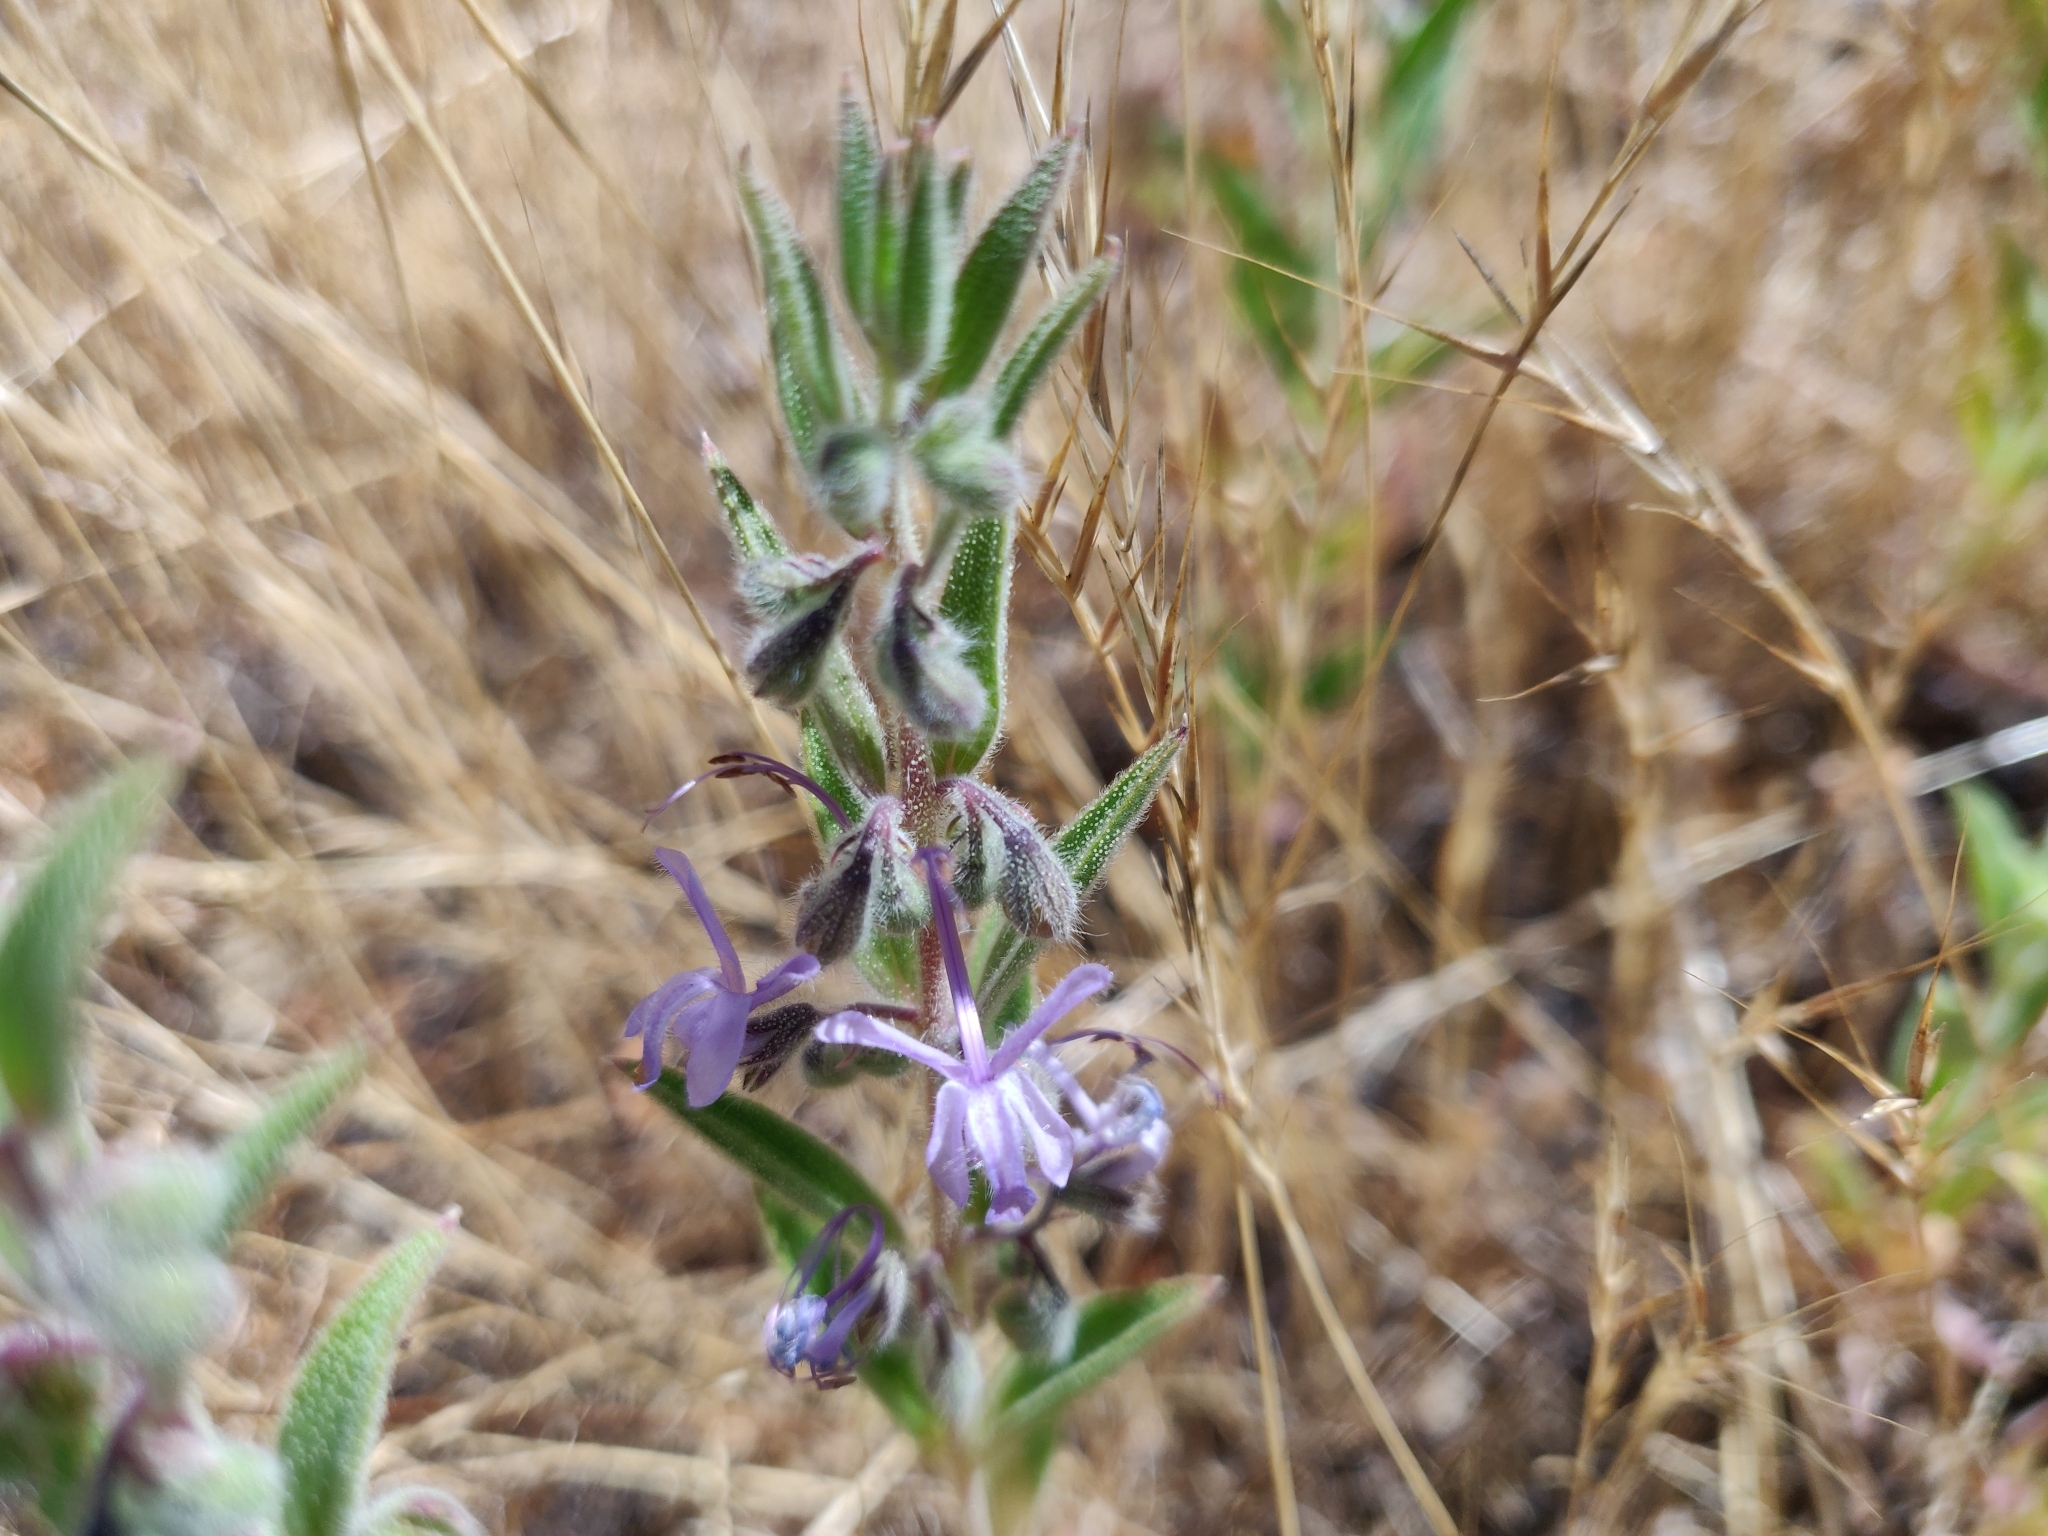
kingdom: Plantae
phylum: Tracheophyta
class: Magnoliopsida
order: Lamiales
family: Lamiaceae
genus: Trichostema
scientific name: Trichostema lanceolatum
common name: Vinegar-weed
